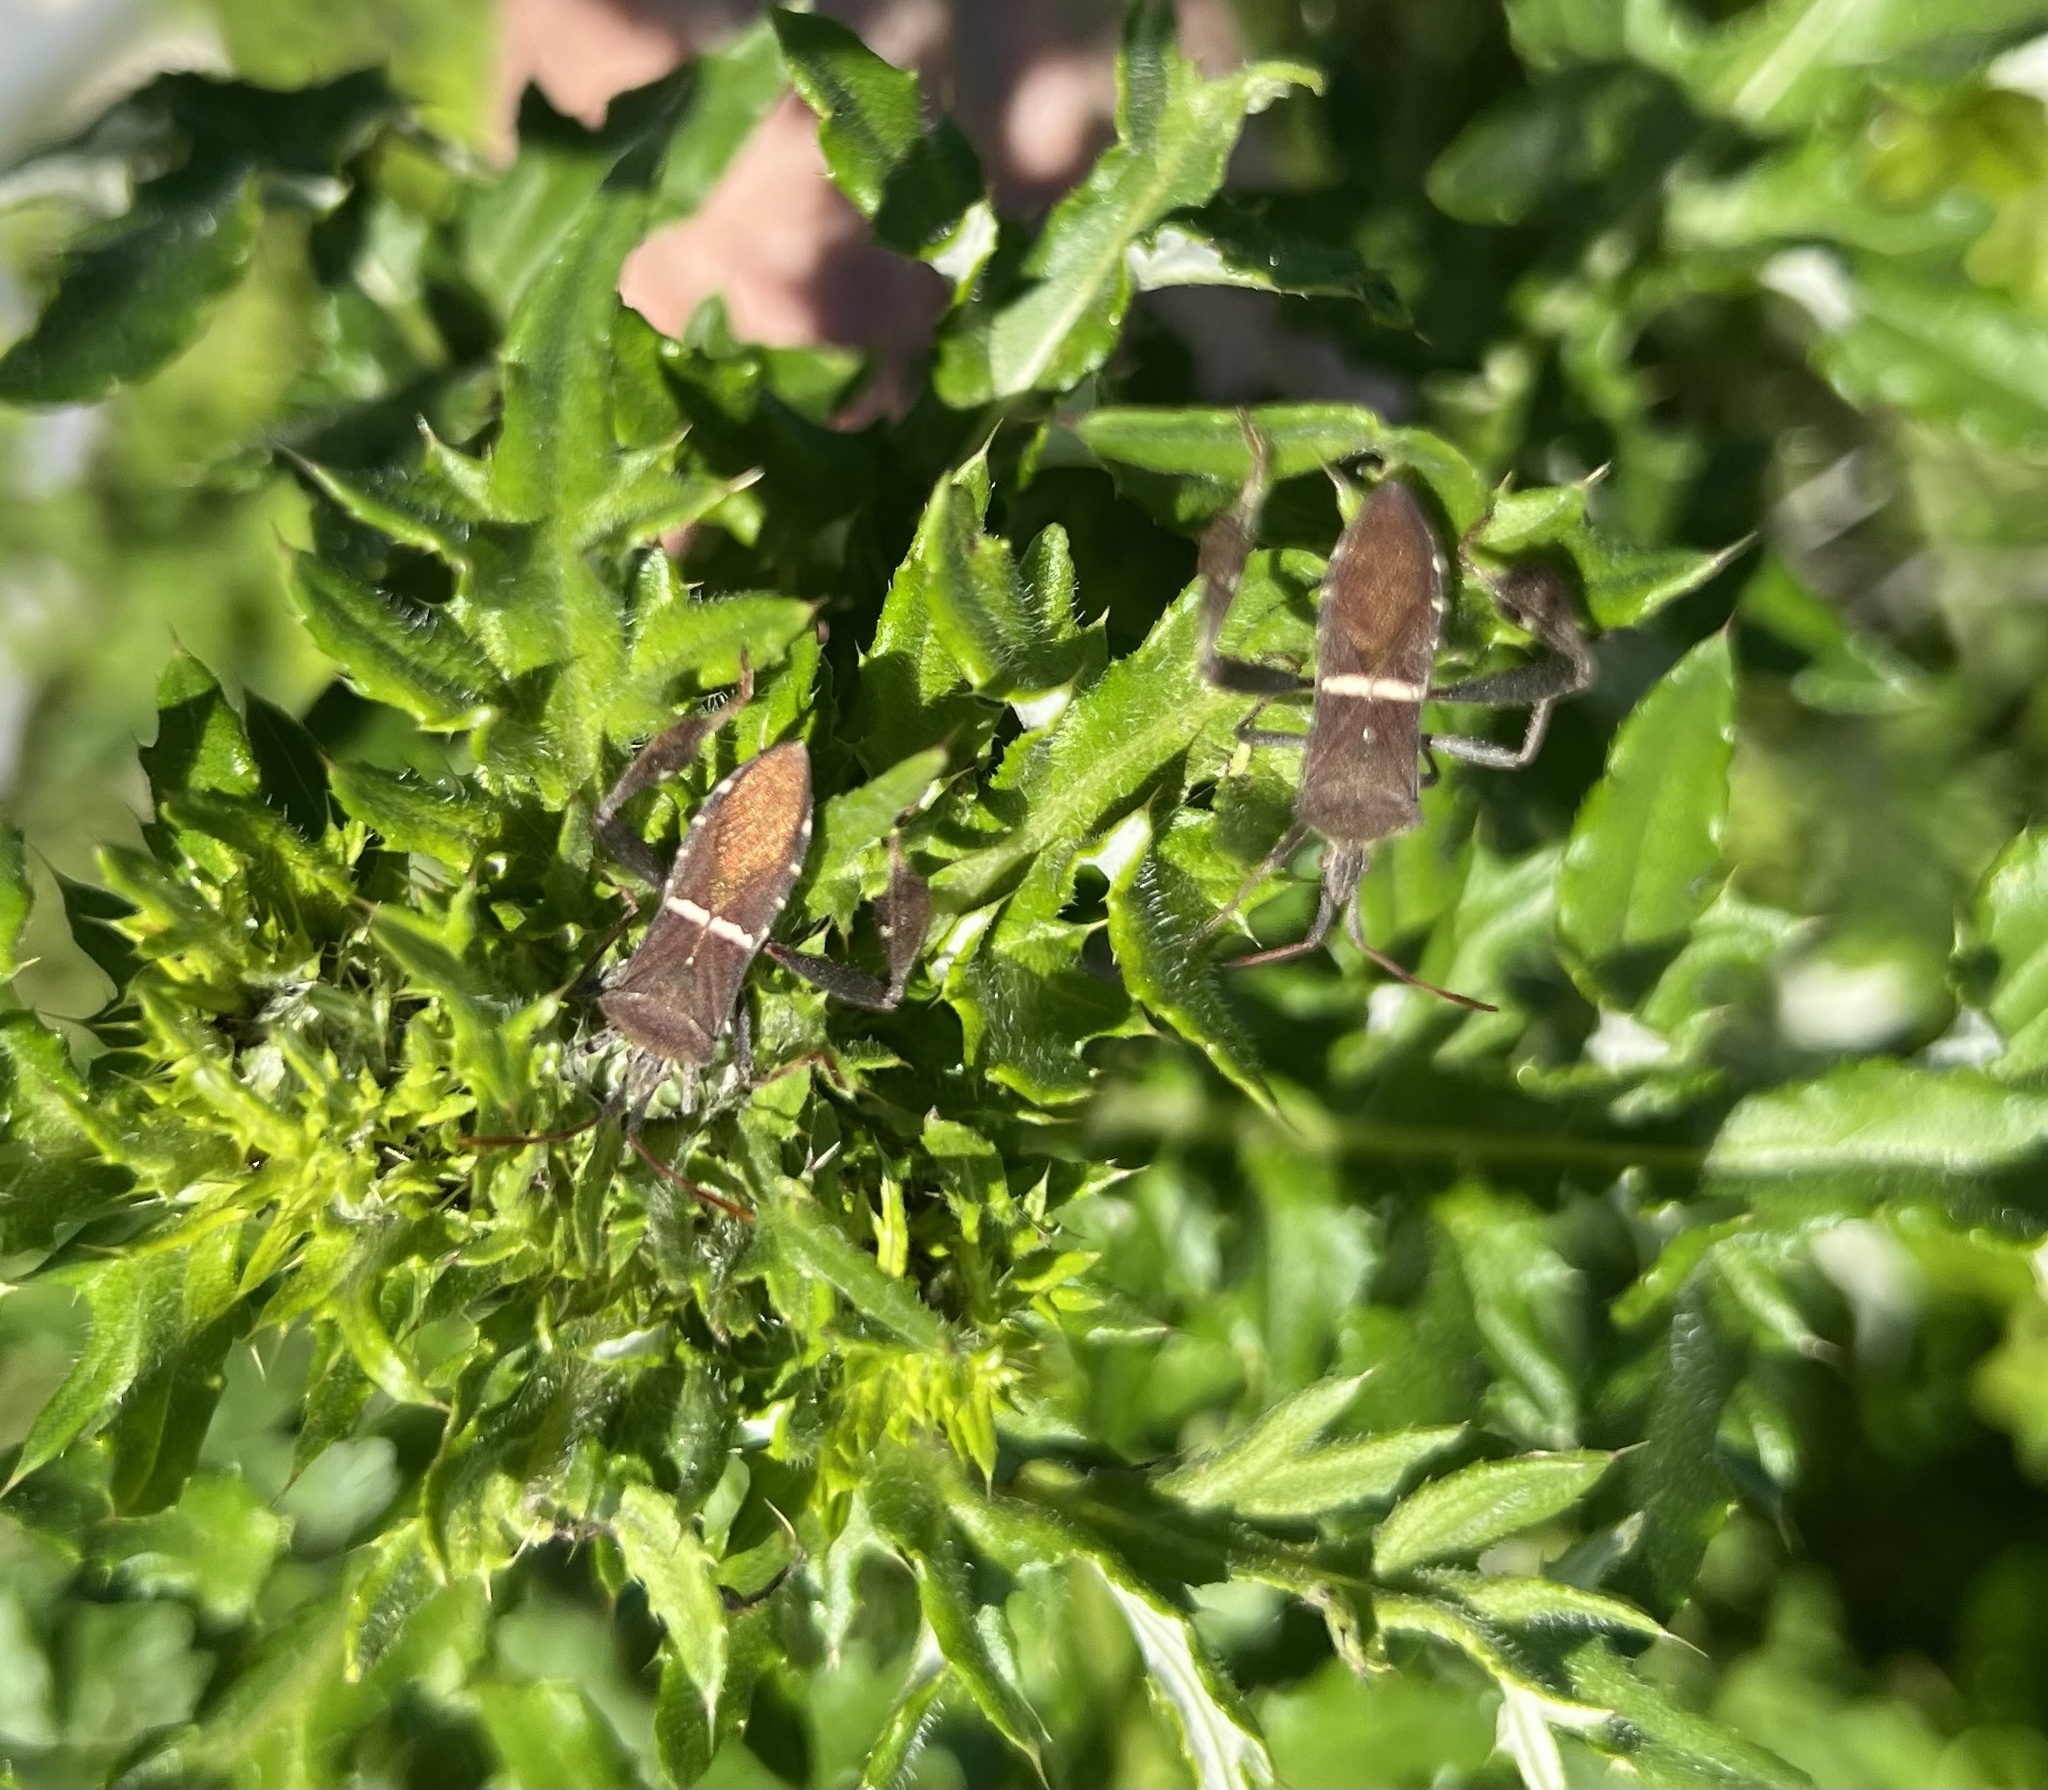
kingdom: Animalia
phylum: Arthropoda
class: Insecta
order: Hemiptera
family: Coreidae
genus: Leptoglossus
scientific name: Leptoglossus phyllopus
